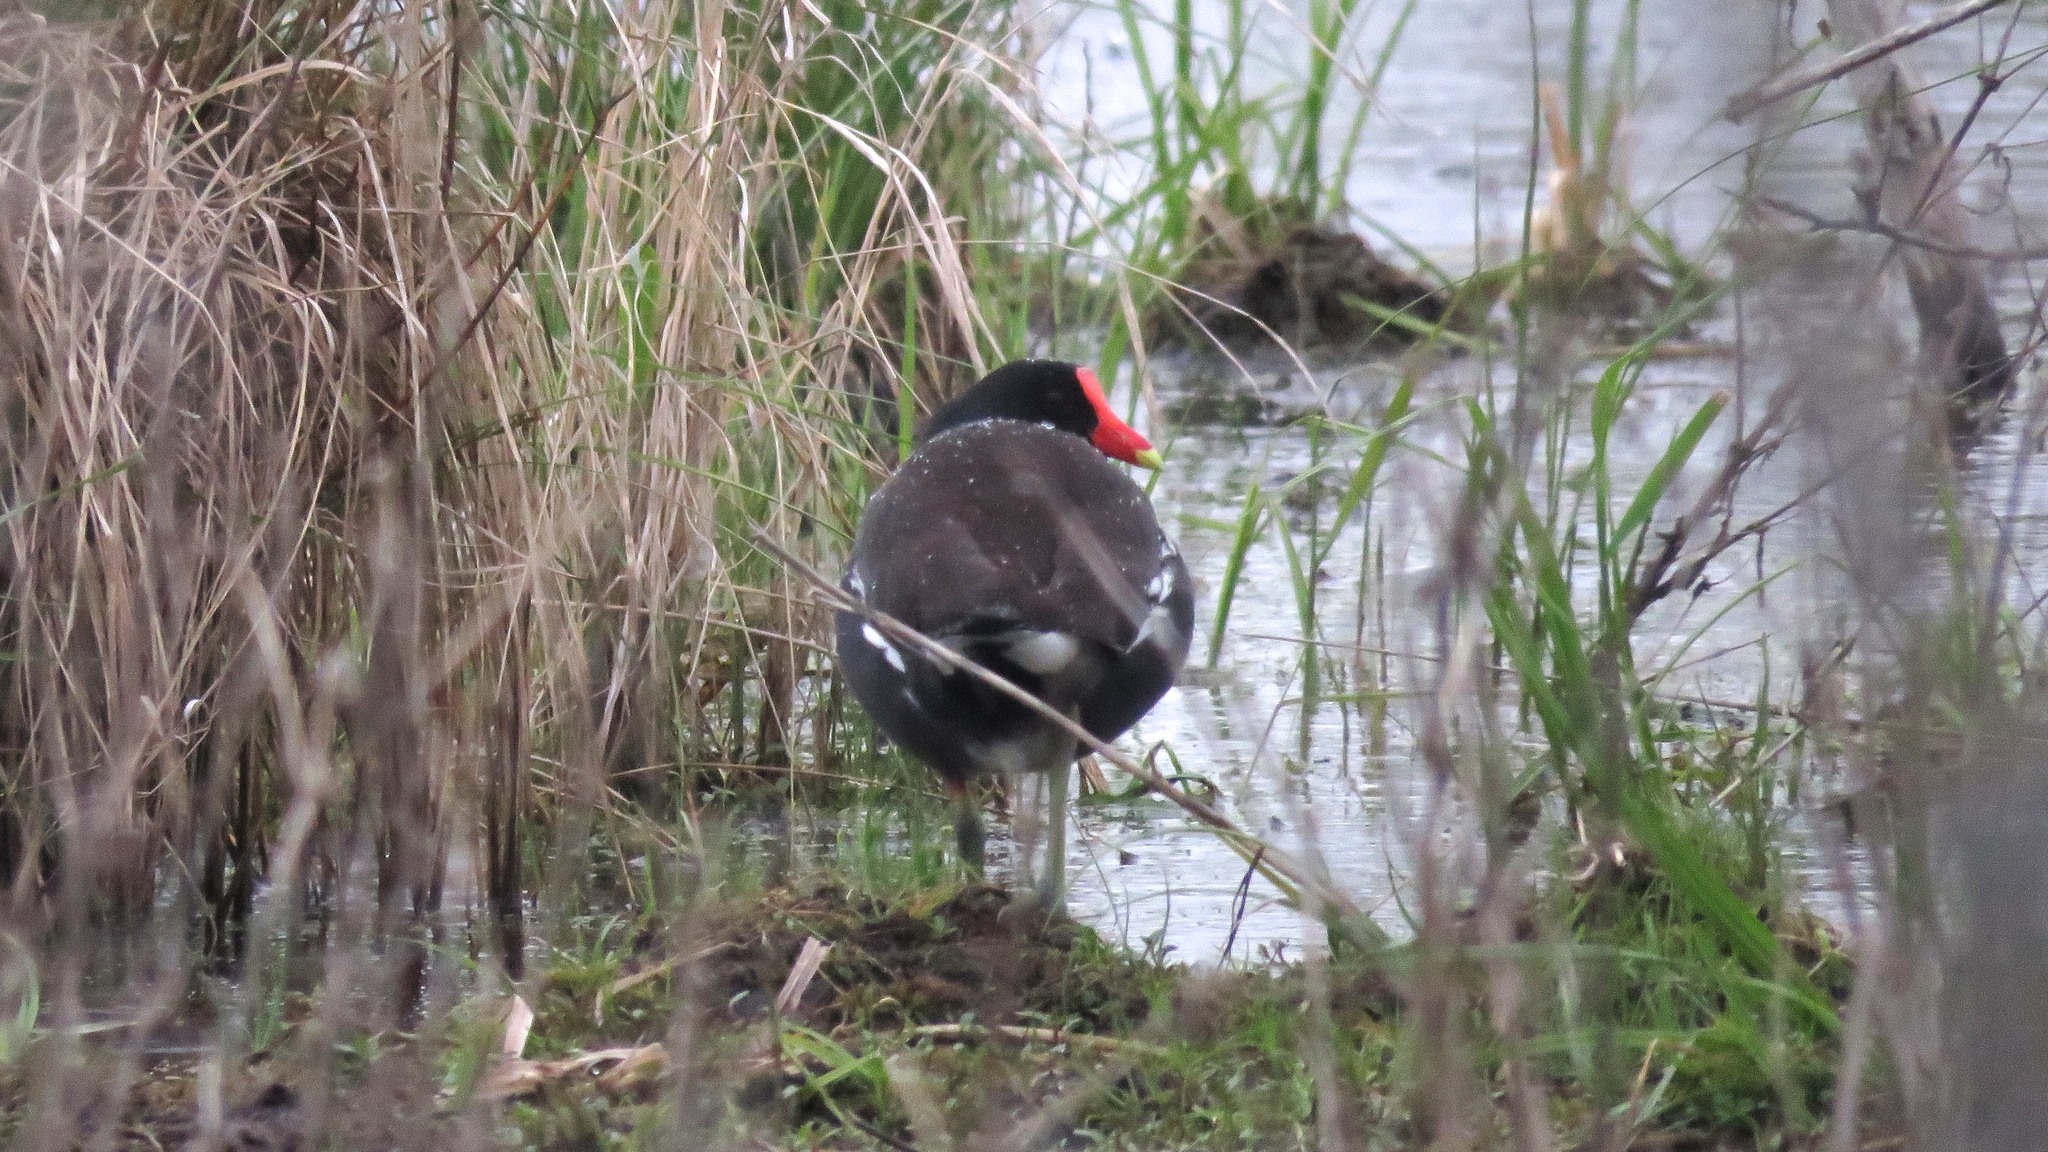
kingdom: Animalia
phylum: Chordata
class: Aves
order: Gruiformes
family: Rallidae
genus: Gallinula
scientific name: Gallinula chloropus
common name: Common moorhen
